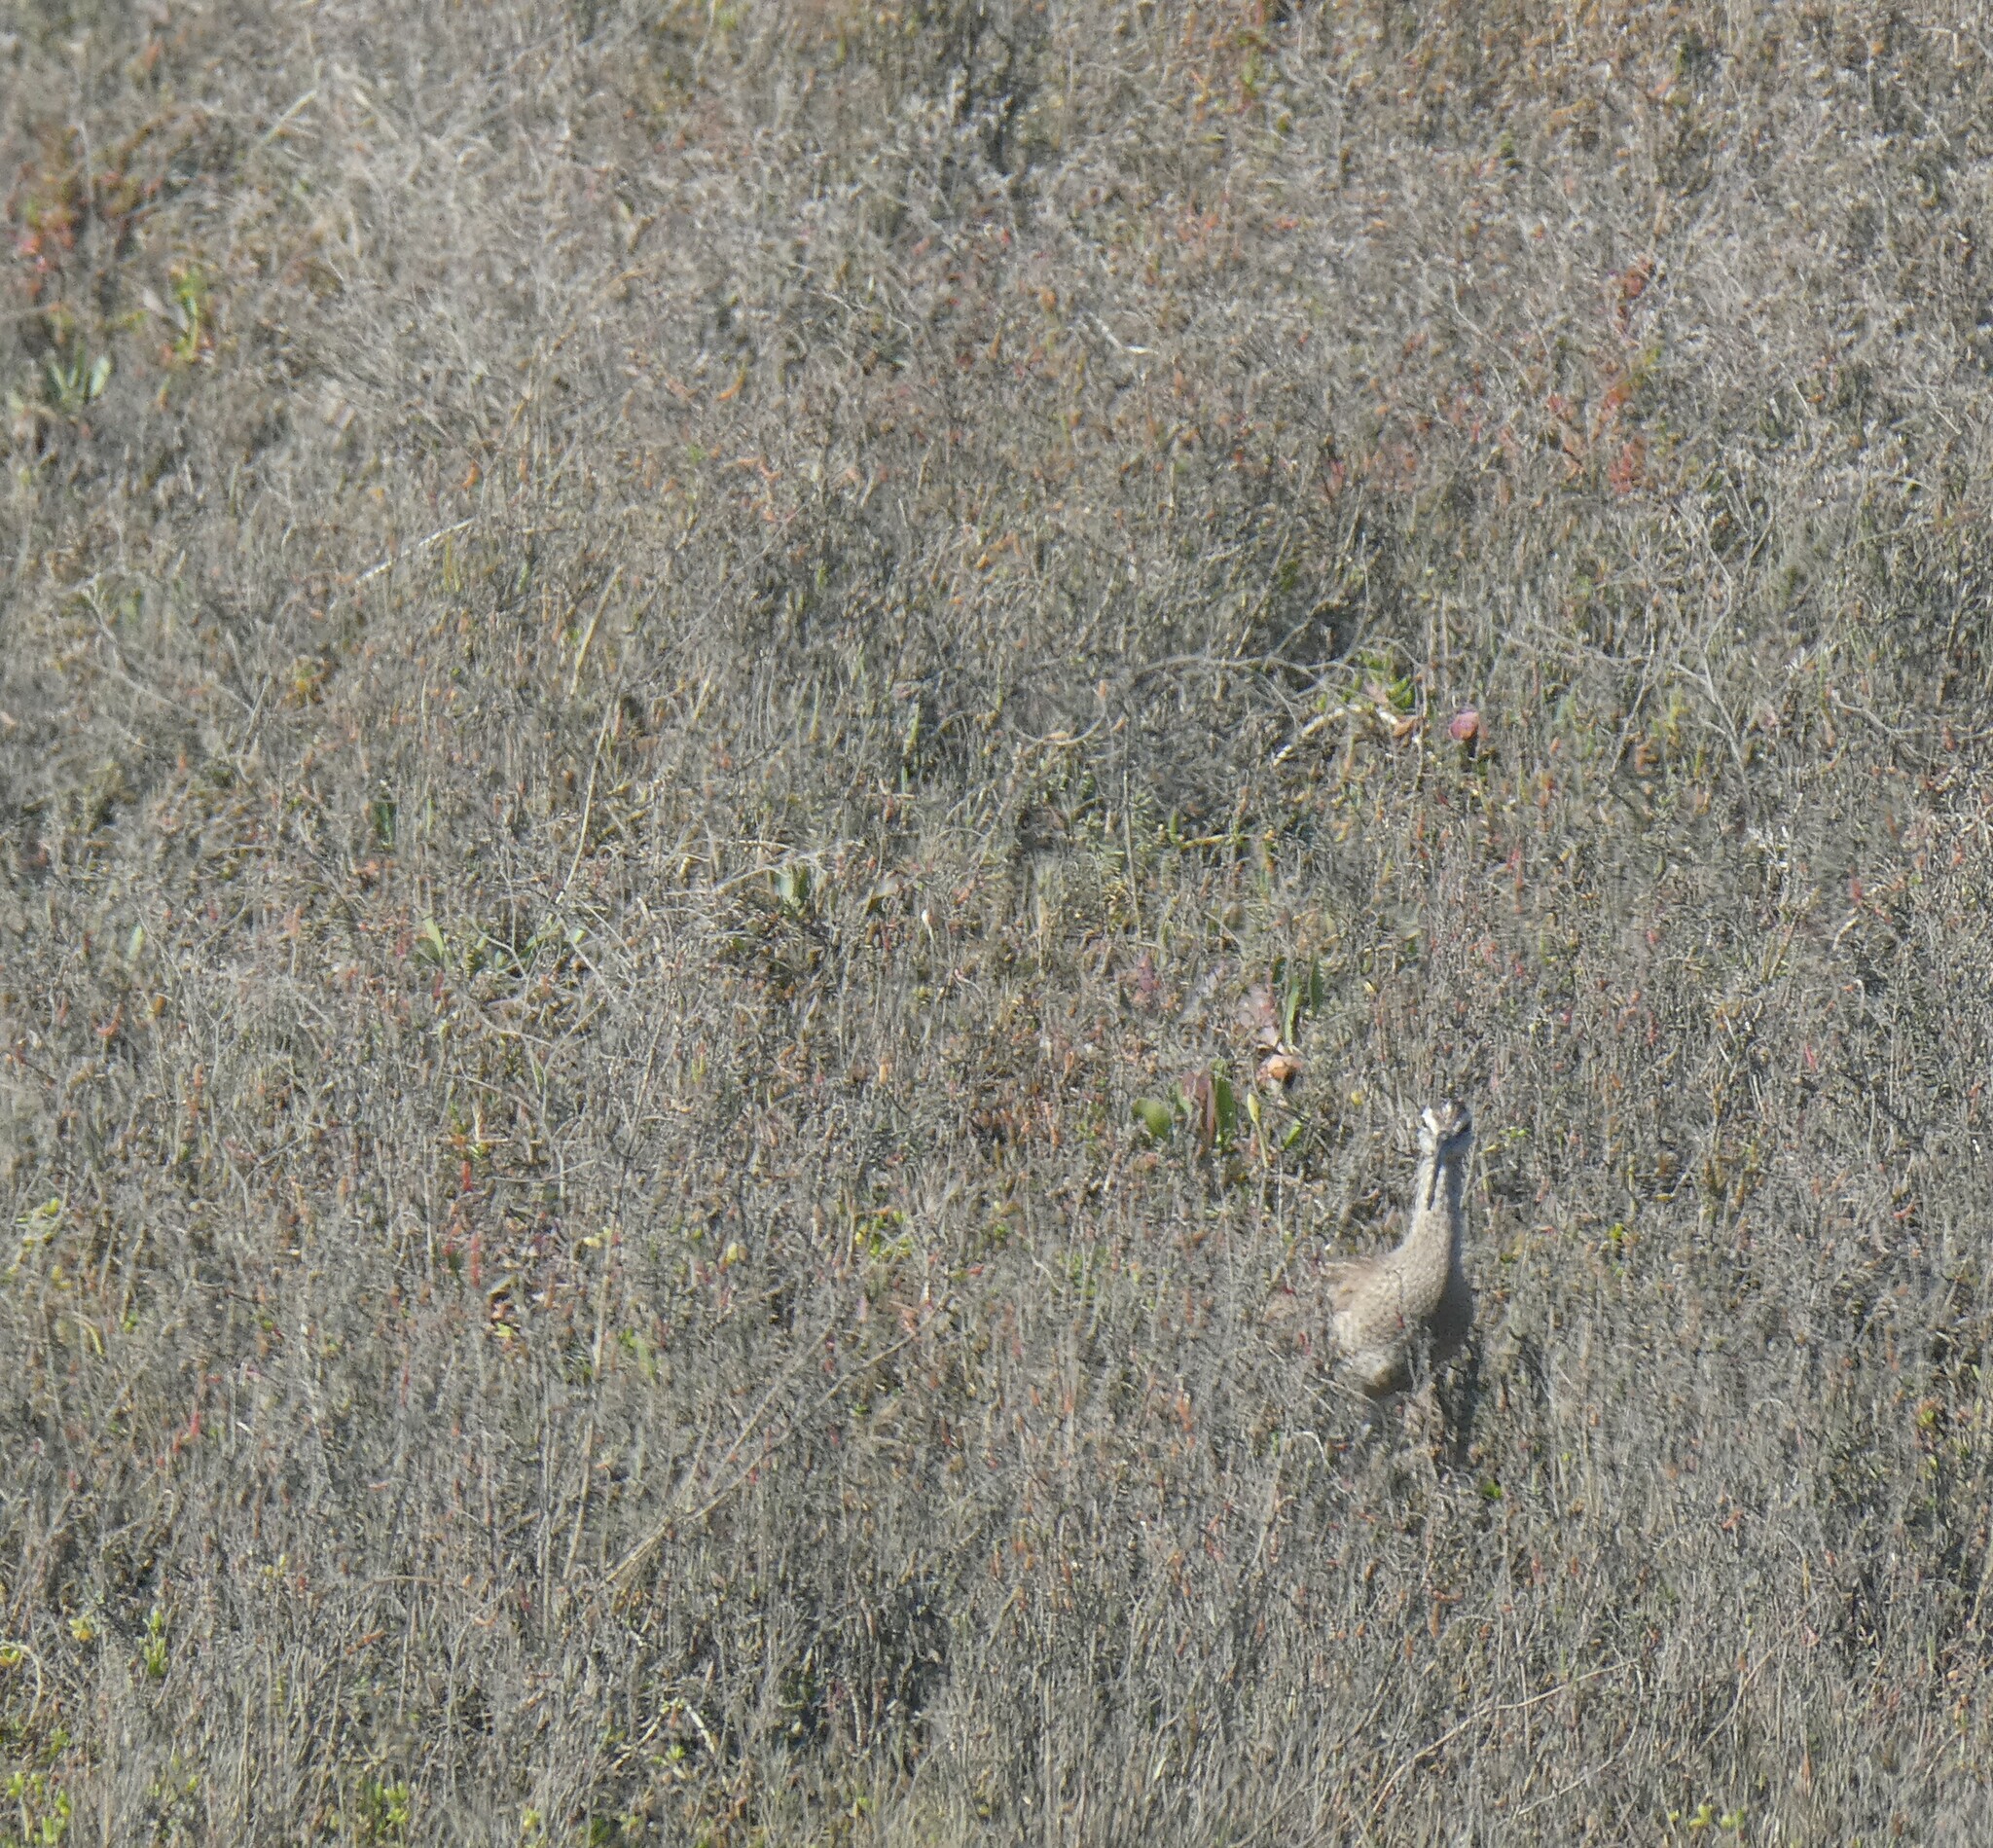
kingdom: Animalia
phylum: Chordata
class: Aves
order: Charadriiformes
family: Scolopacidae
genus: Numenius
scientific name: Numenius phaeopus
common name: Whimbrel
